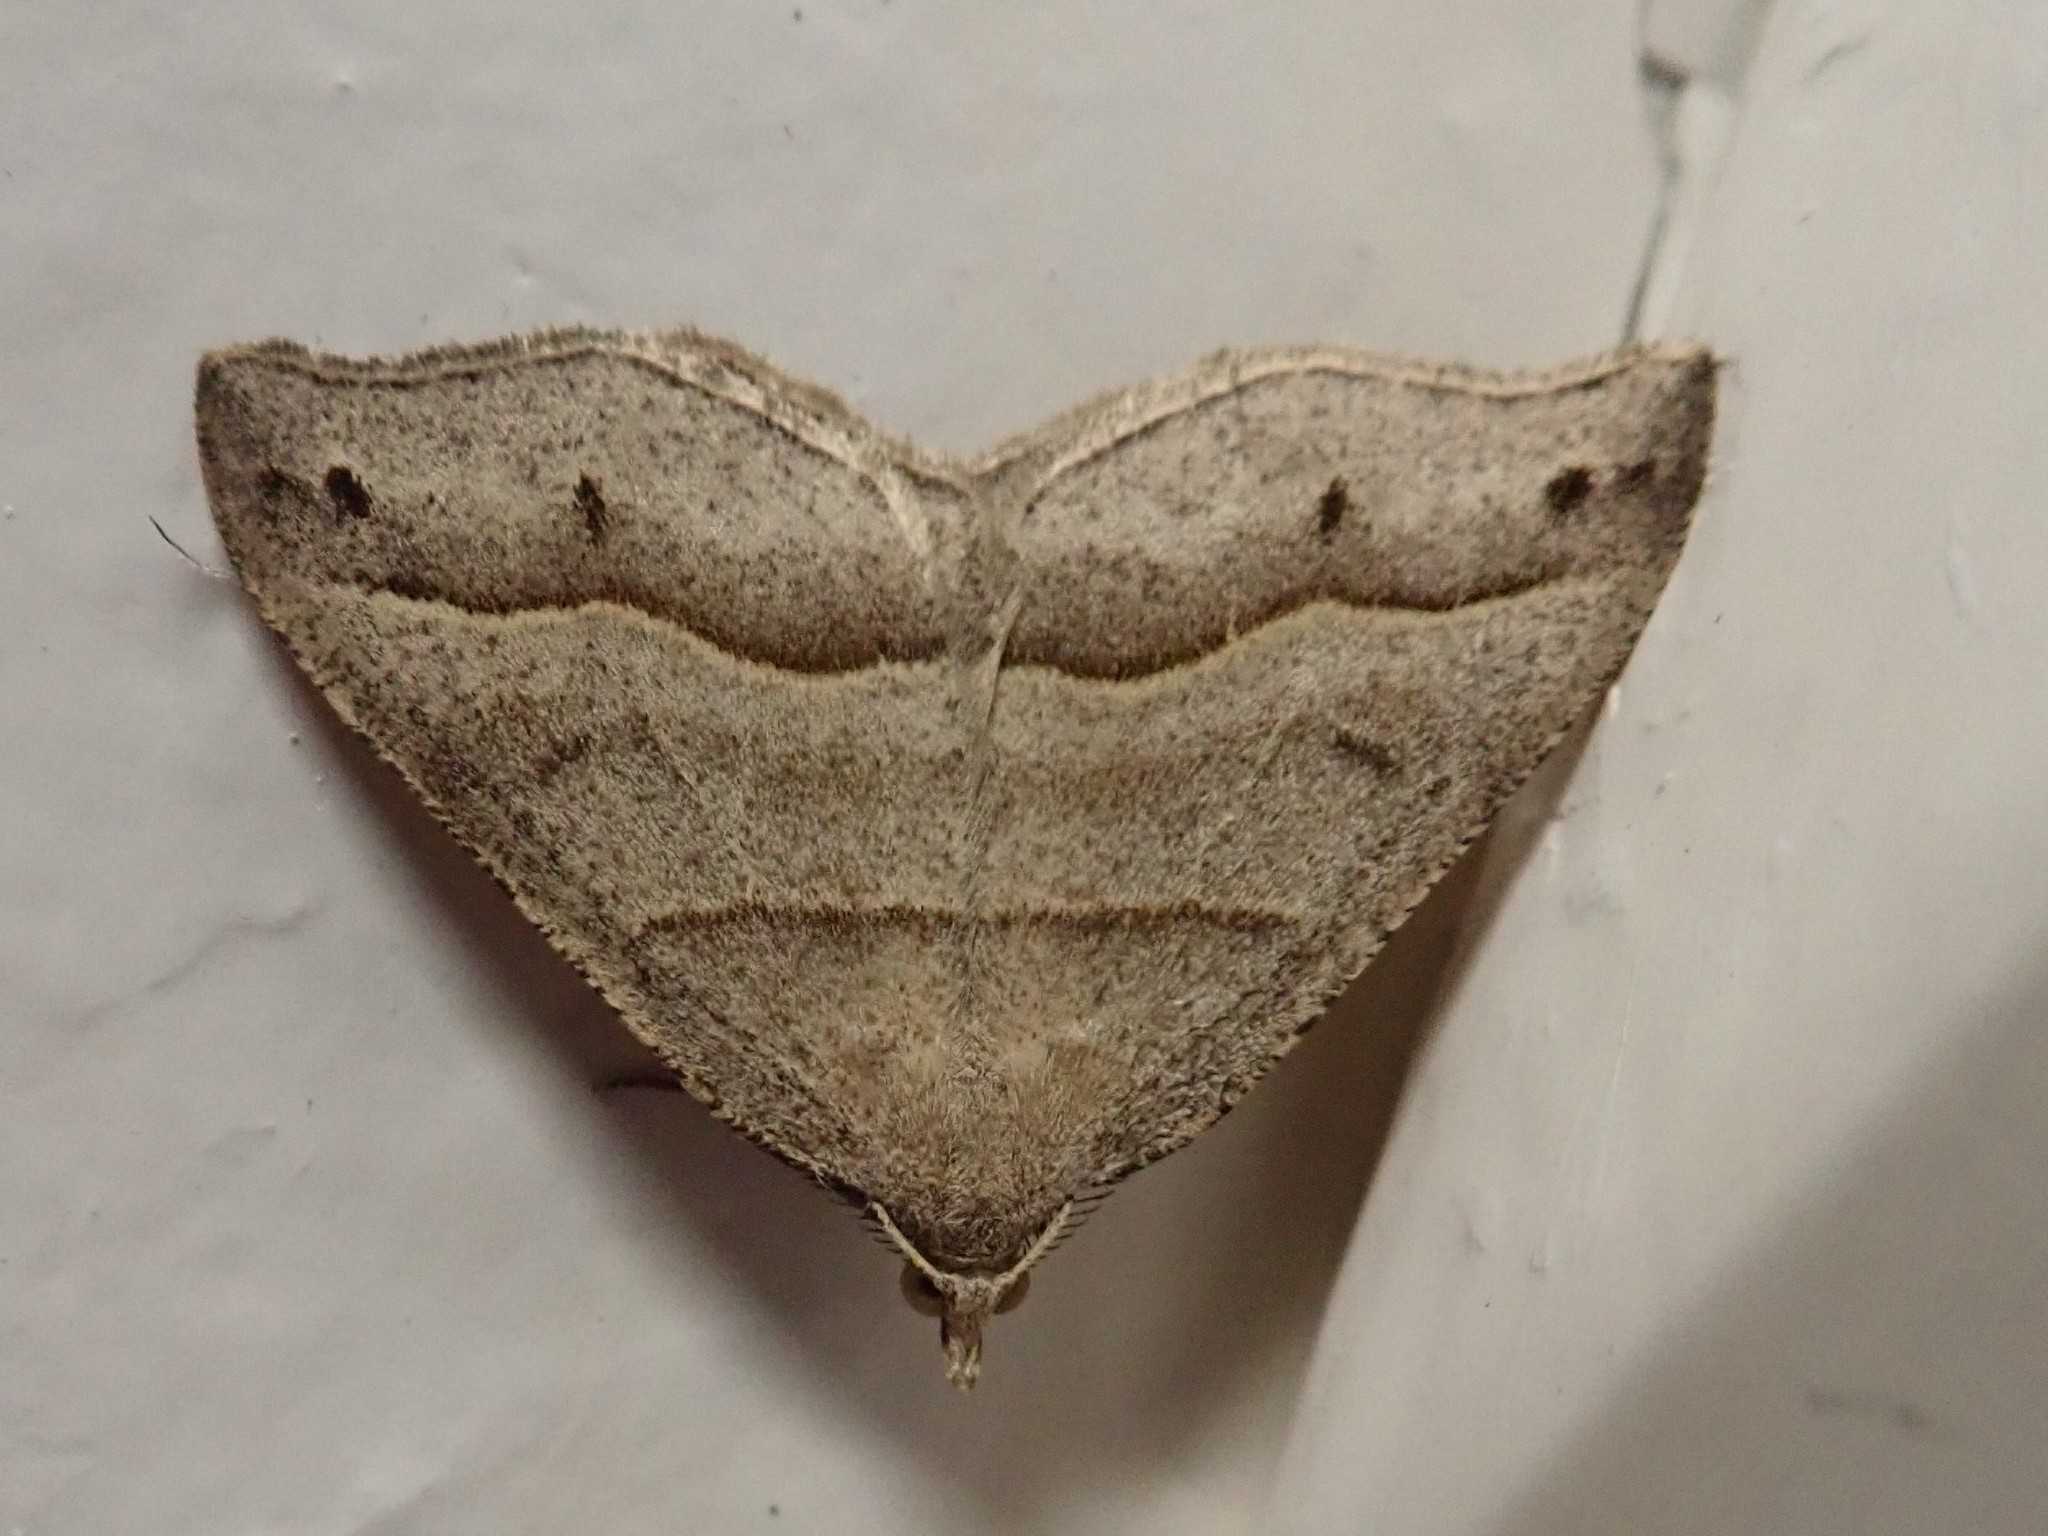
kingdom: Animalia
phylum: Arthropoda
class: Insecta
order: Lepidoptera
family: Geometridae
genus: Macaria
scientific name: Macaria lorquinaria
